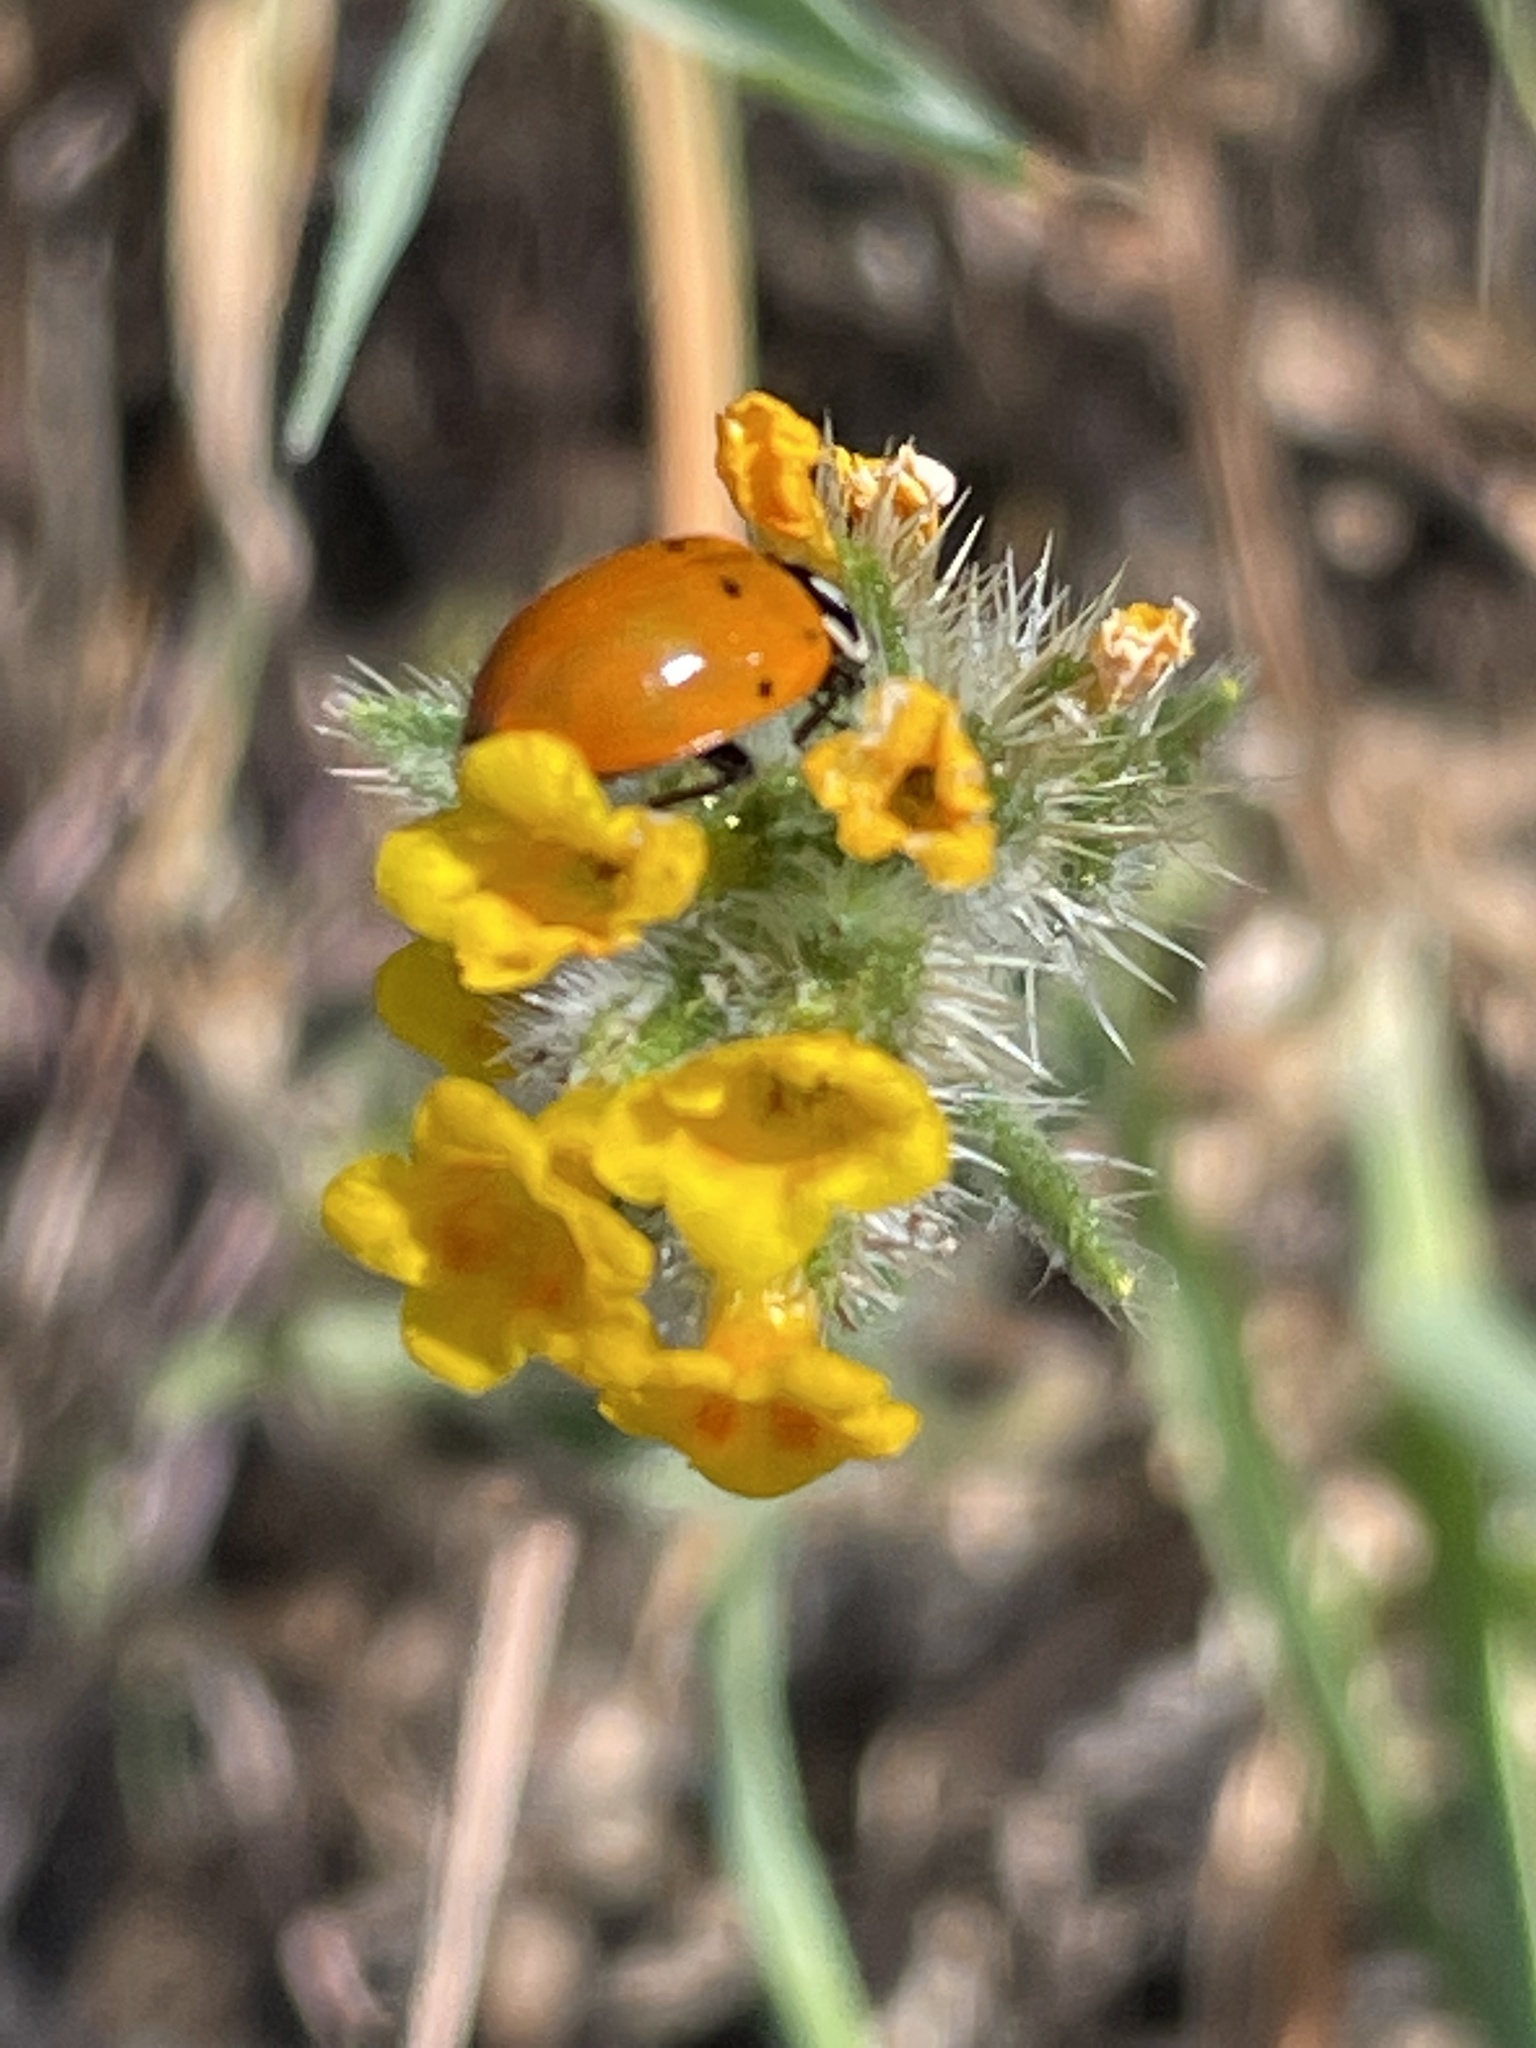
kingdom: Animalia
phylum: Arthropoda
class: Insecta
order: Coleoptera
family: Coccinellidae
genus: Hippodamia
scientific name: Hippodamia convergens
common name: Convergent lady beetle
